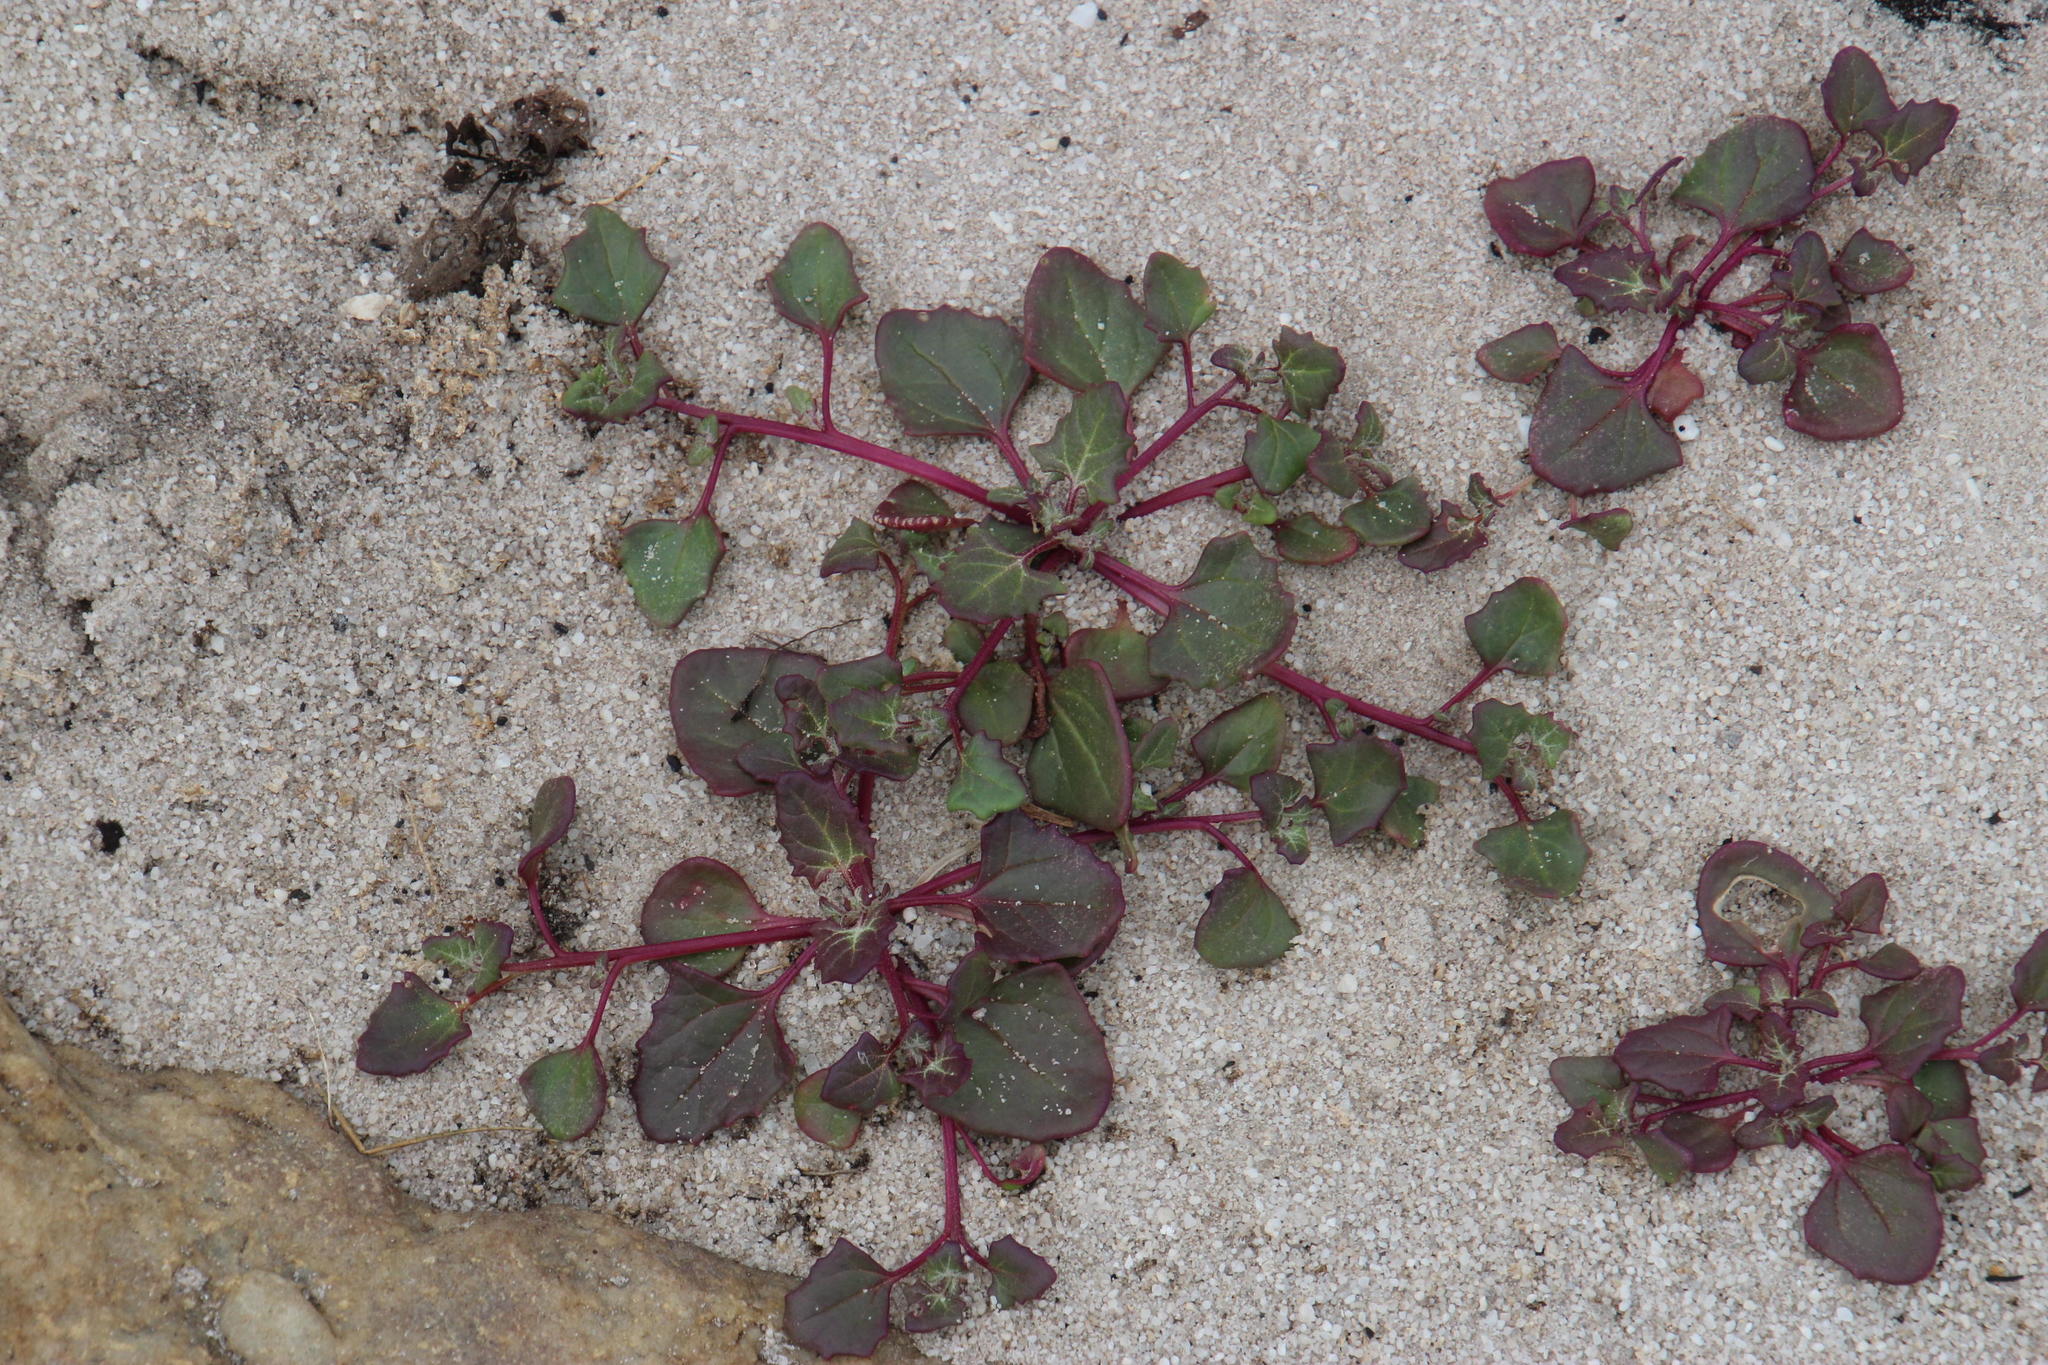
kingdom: Plantae
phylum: Tracheophyta
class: Magnoliopsida
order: Caryophyllales
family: Amaranthaceae
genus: Oxybasis
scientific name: Oxybasis chenopodioides
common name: Saltmarsh goosefoot
